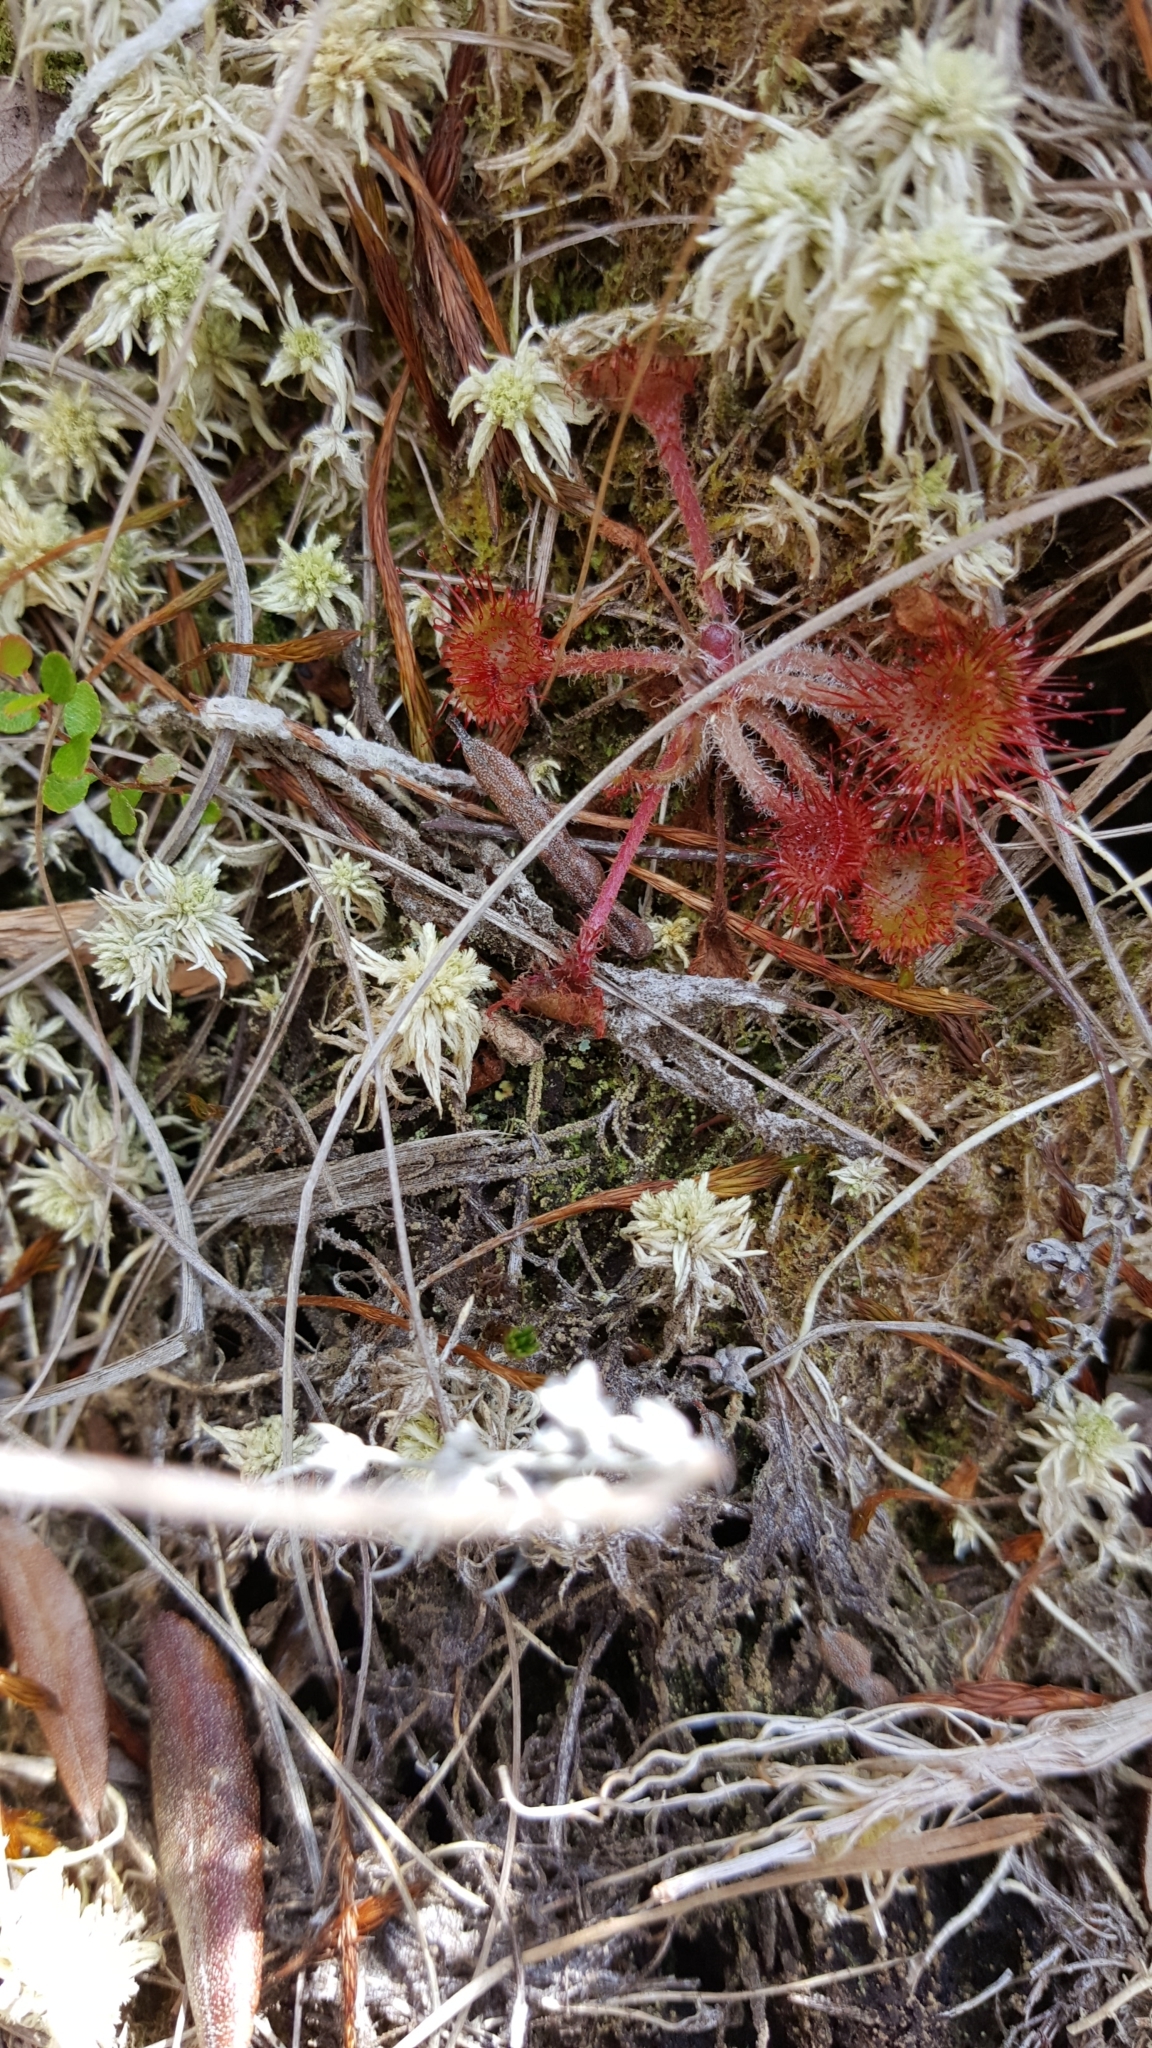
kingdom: Plantae
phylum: Tracheophyta
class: Magnoliopsida
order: Caryophyllales
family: Droseraceae
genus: Drosera
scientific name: Drosera rotundifolia
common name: Round-leaved sundew
